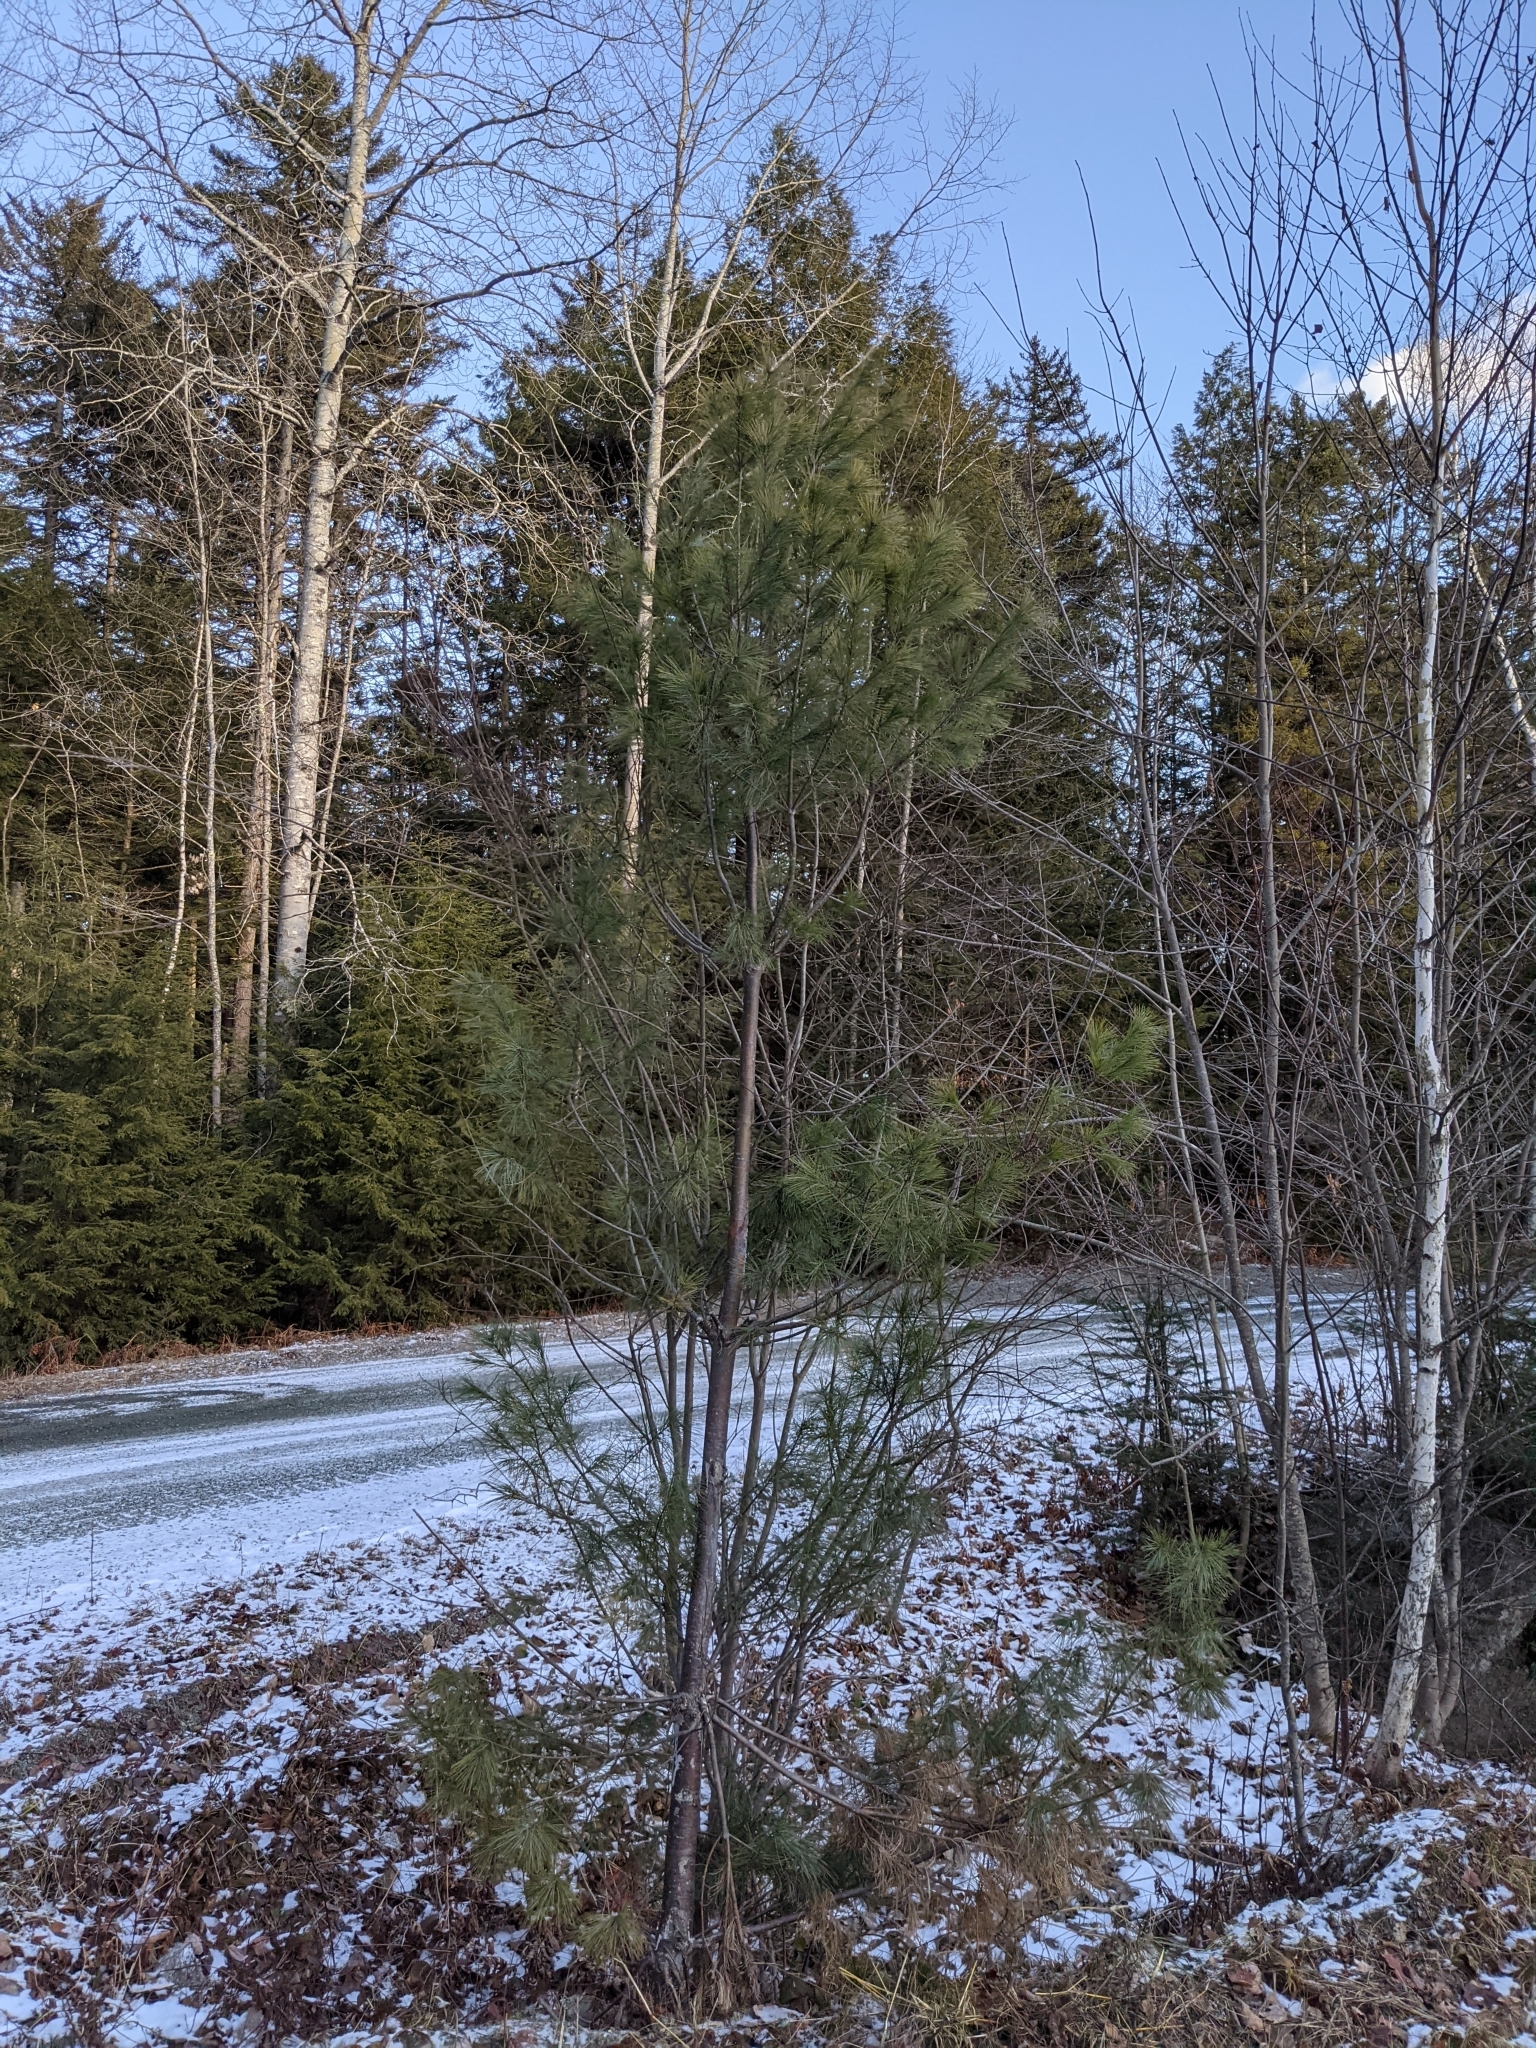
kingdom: Plantae
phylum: Tracheophyta
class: Pinopsida
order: Pinales
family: Pinaceae
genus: Pinus
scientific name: Pinus strobus
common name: Weymouth pine
